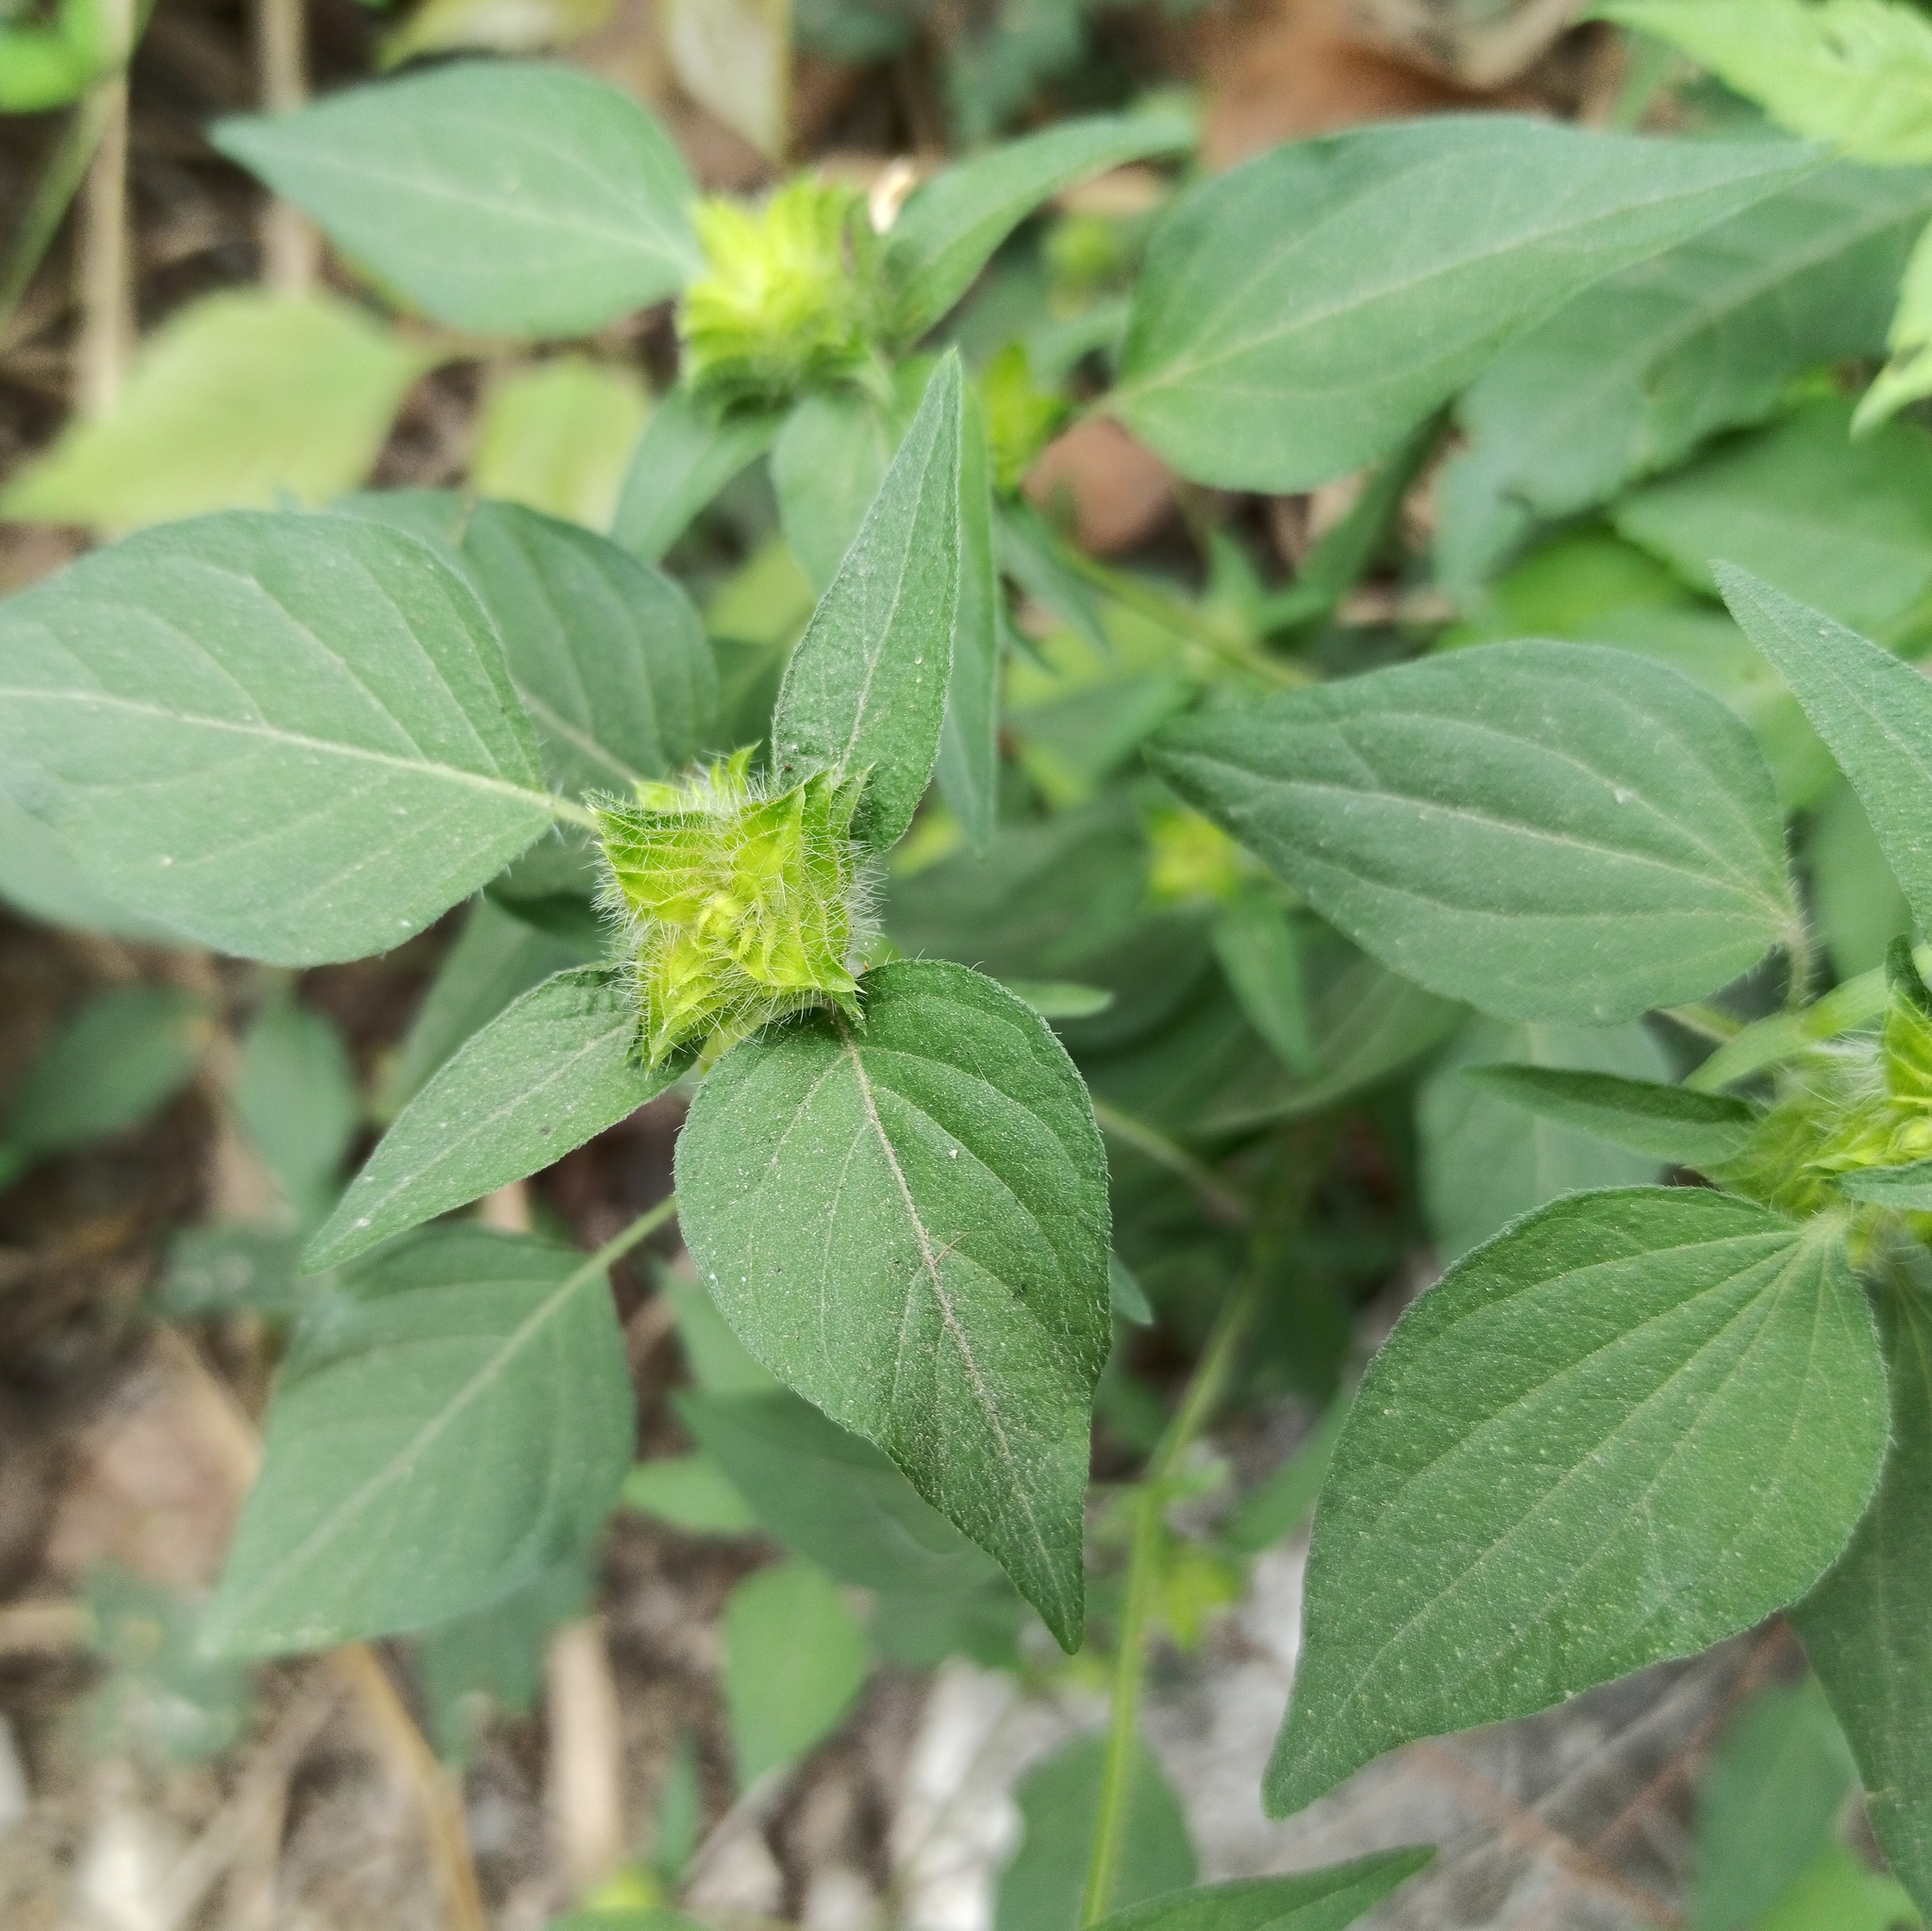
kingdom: Plantae
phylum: Tracheophyta
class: Magnoliopsida
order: Lamiales
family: Acanthaceae
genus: Tetramerium
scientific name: Tetramerium nervosum
